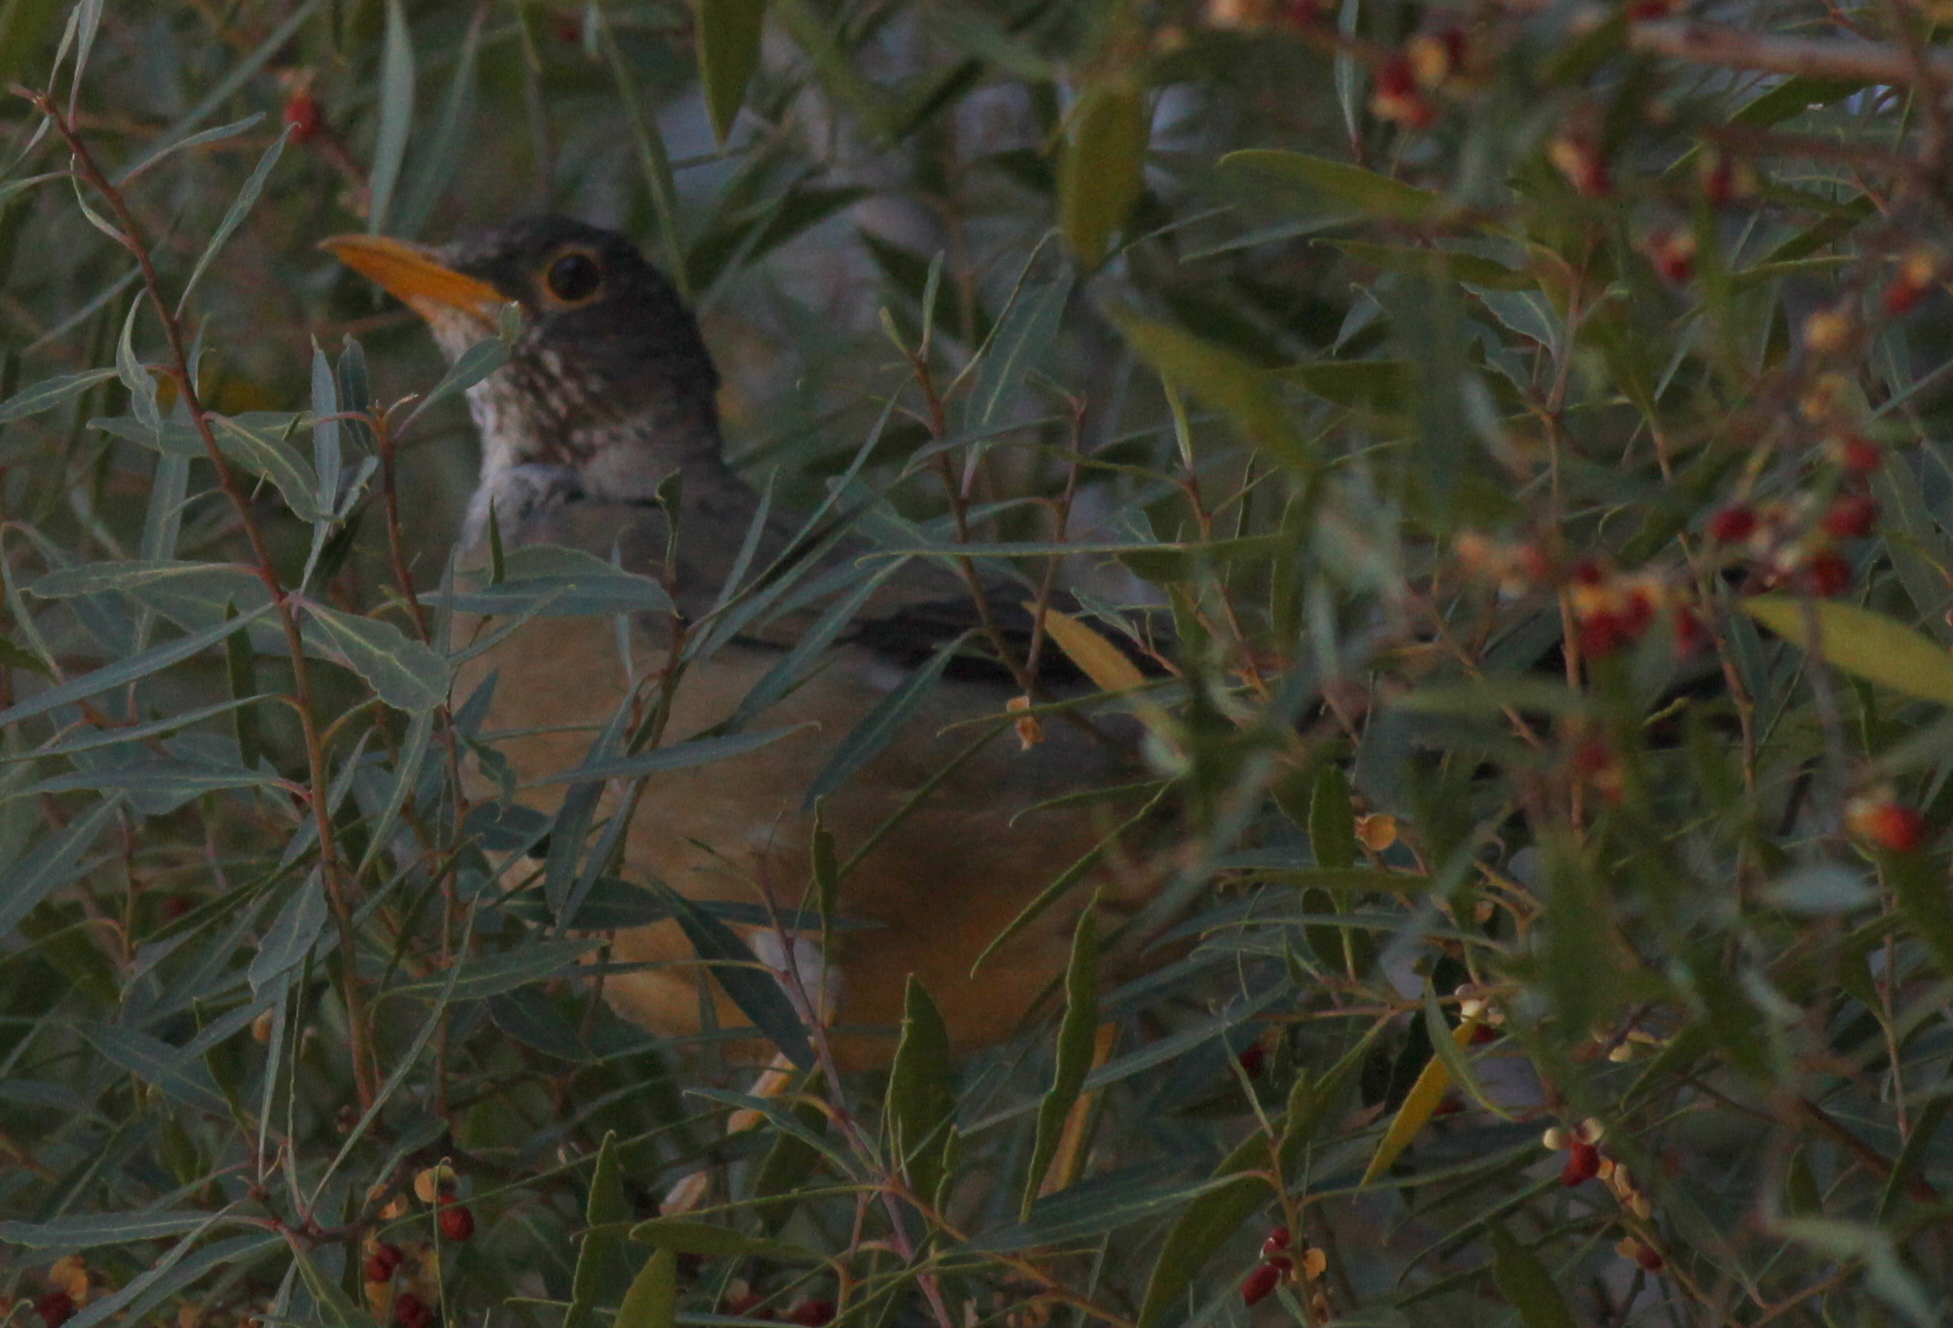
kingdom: Animalia
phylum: Chordata
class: Aves
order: Passeriformes
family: Turdidae
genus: Turdus
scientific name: Turdus falcklandii
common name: Austral thrush
